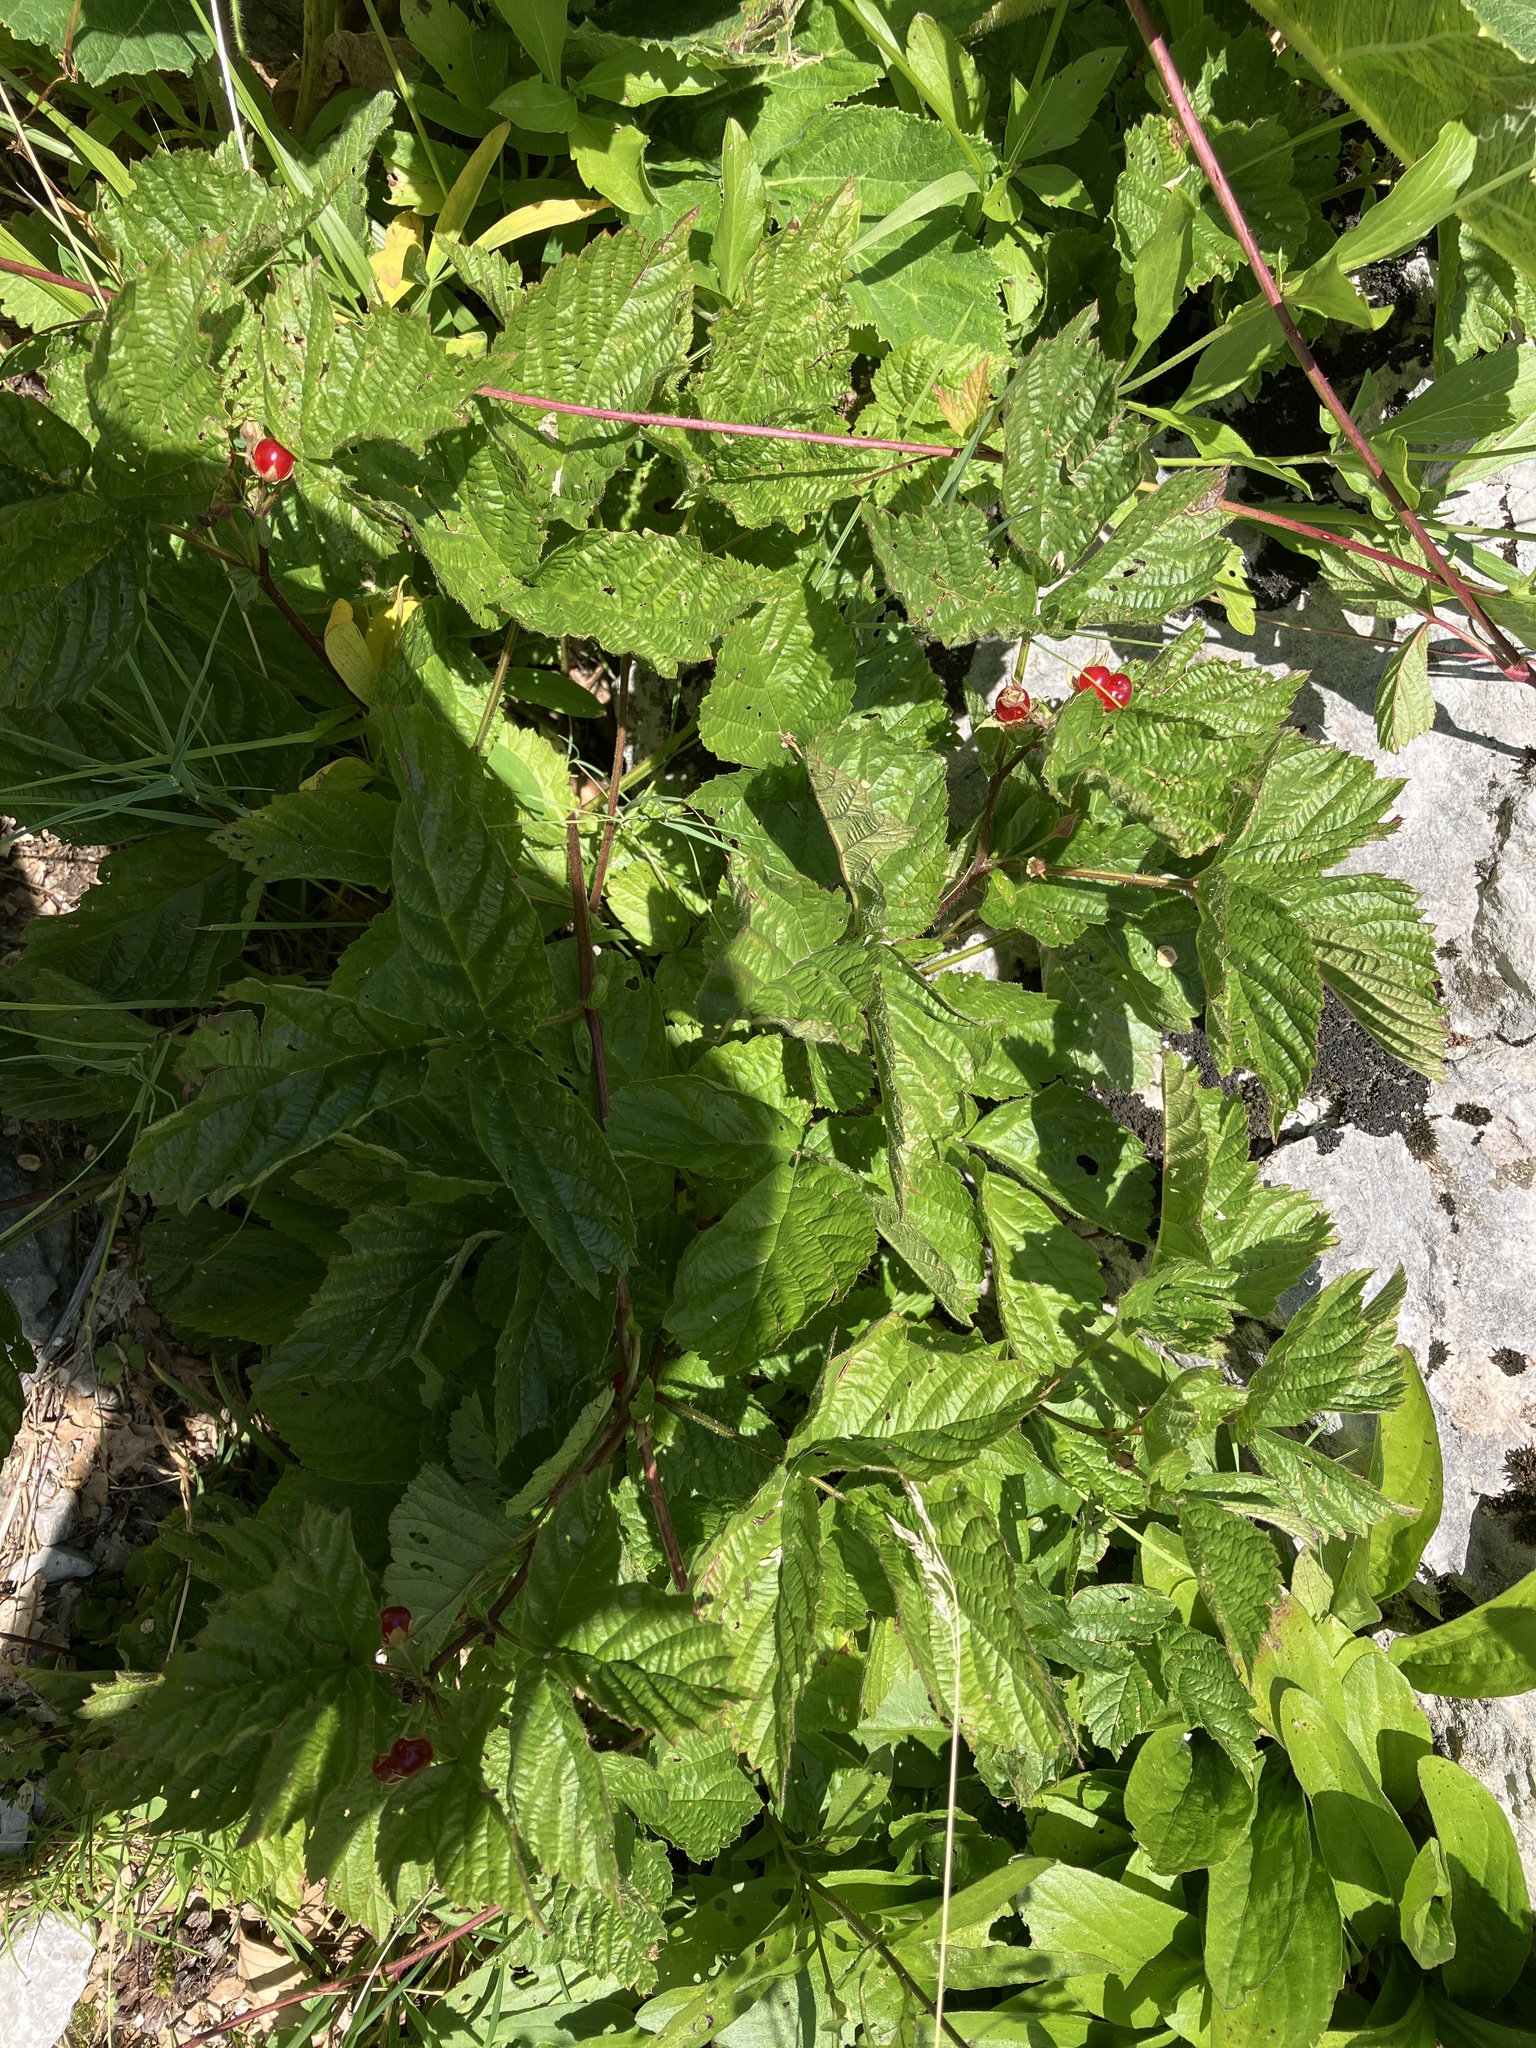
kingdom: Plantae
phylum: Tracheophyta
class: Magnoliopsida
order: Rosales
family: Rosaceae
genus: Rubus
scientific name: Rubus saxatilis
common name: Stone bramble
